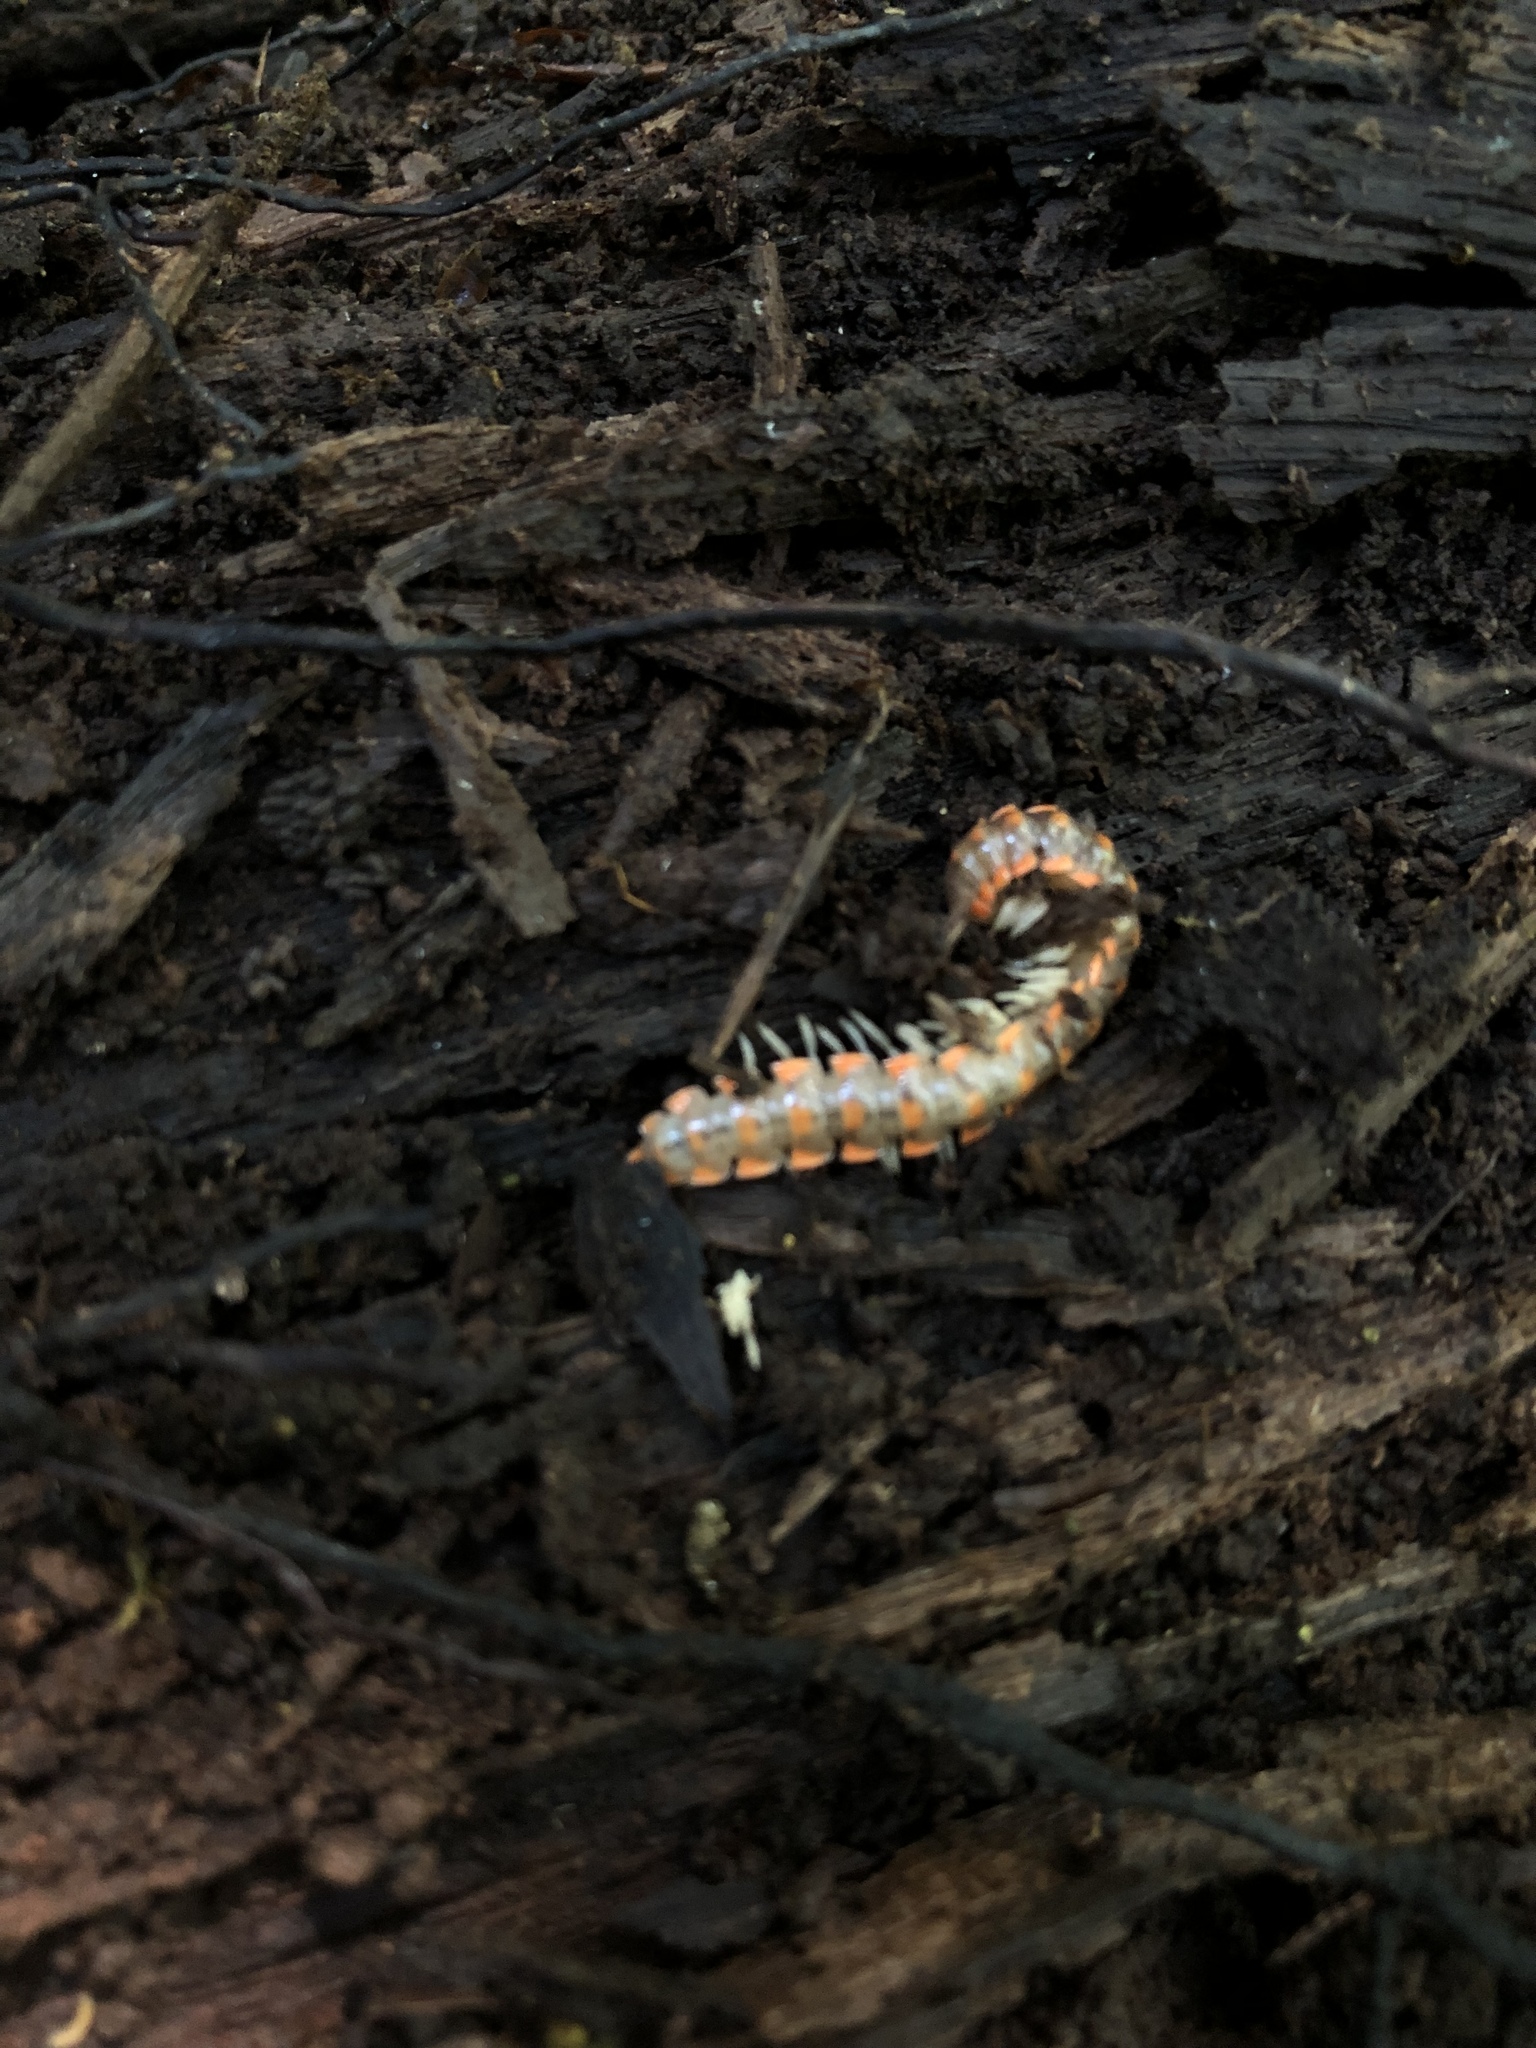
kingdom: Animalia
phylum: Arthropoda
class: Diplopoda
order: Polydesmida
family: Xystodesmidae
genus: Euryurus
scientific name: Euryurus leachii
